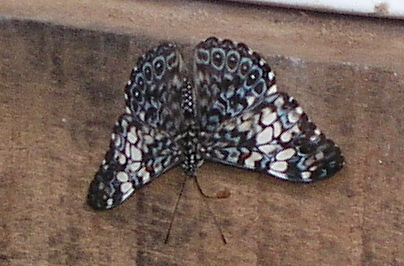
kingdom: Animalia
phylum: Arthropoda
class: Insecta
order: Lepidoptera
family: Nymphalidae
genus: Hamadryas
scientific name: Hamadryas amphinome
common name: Red cracker
